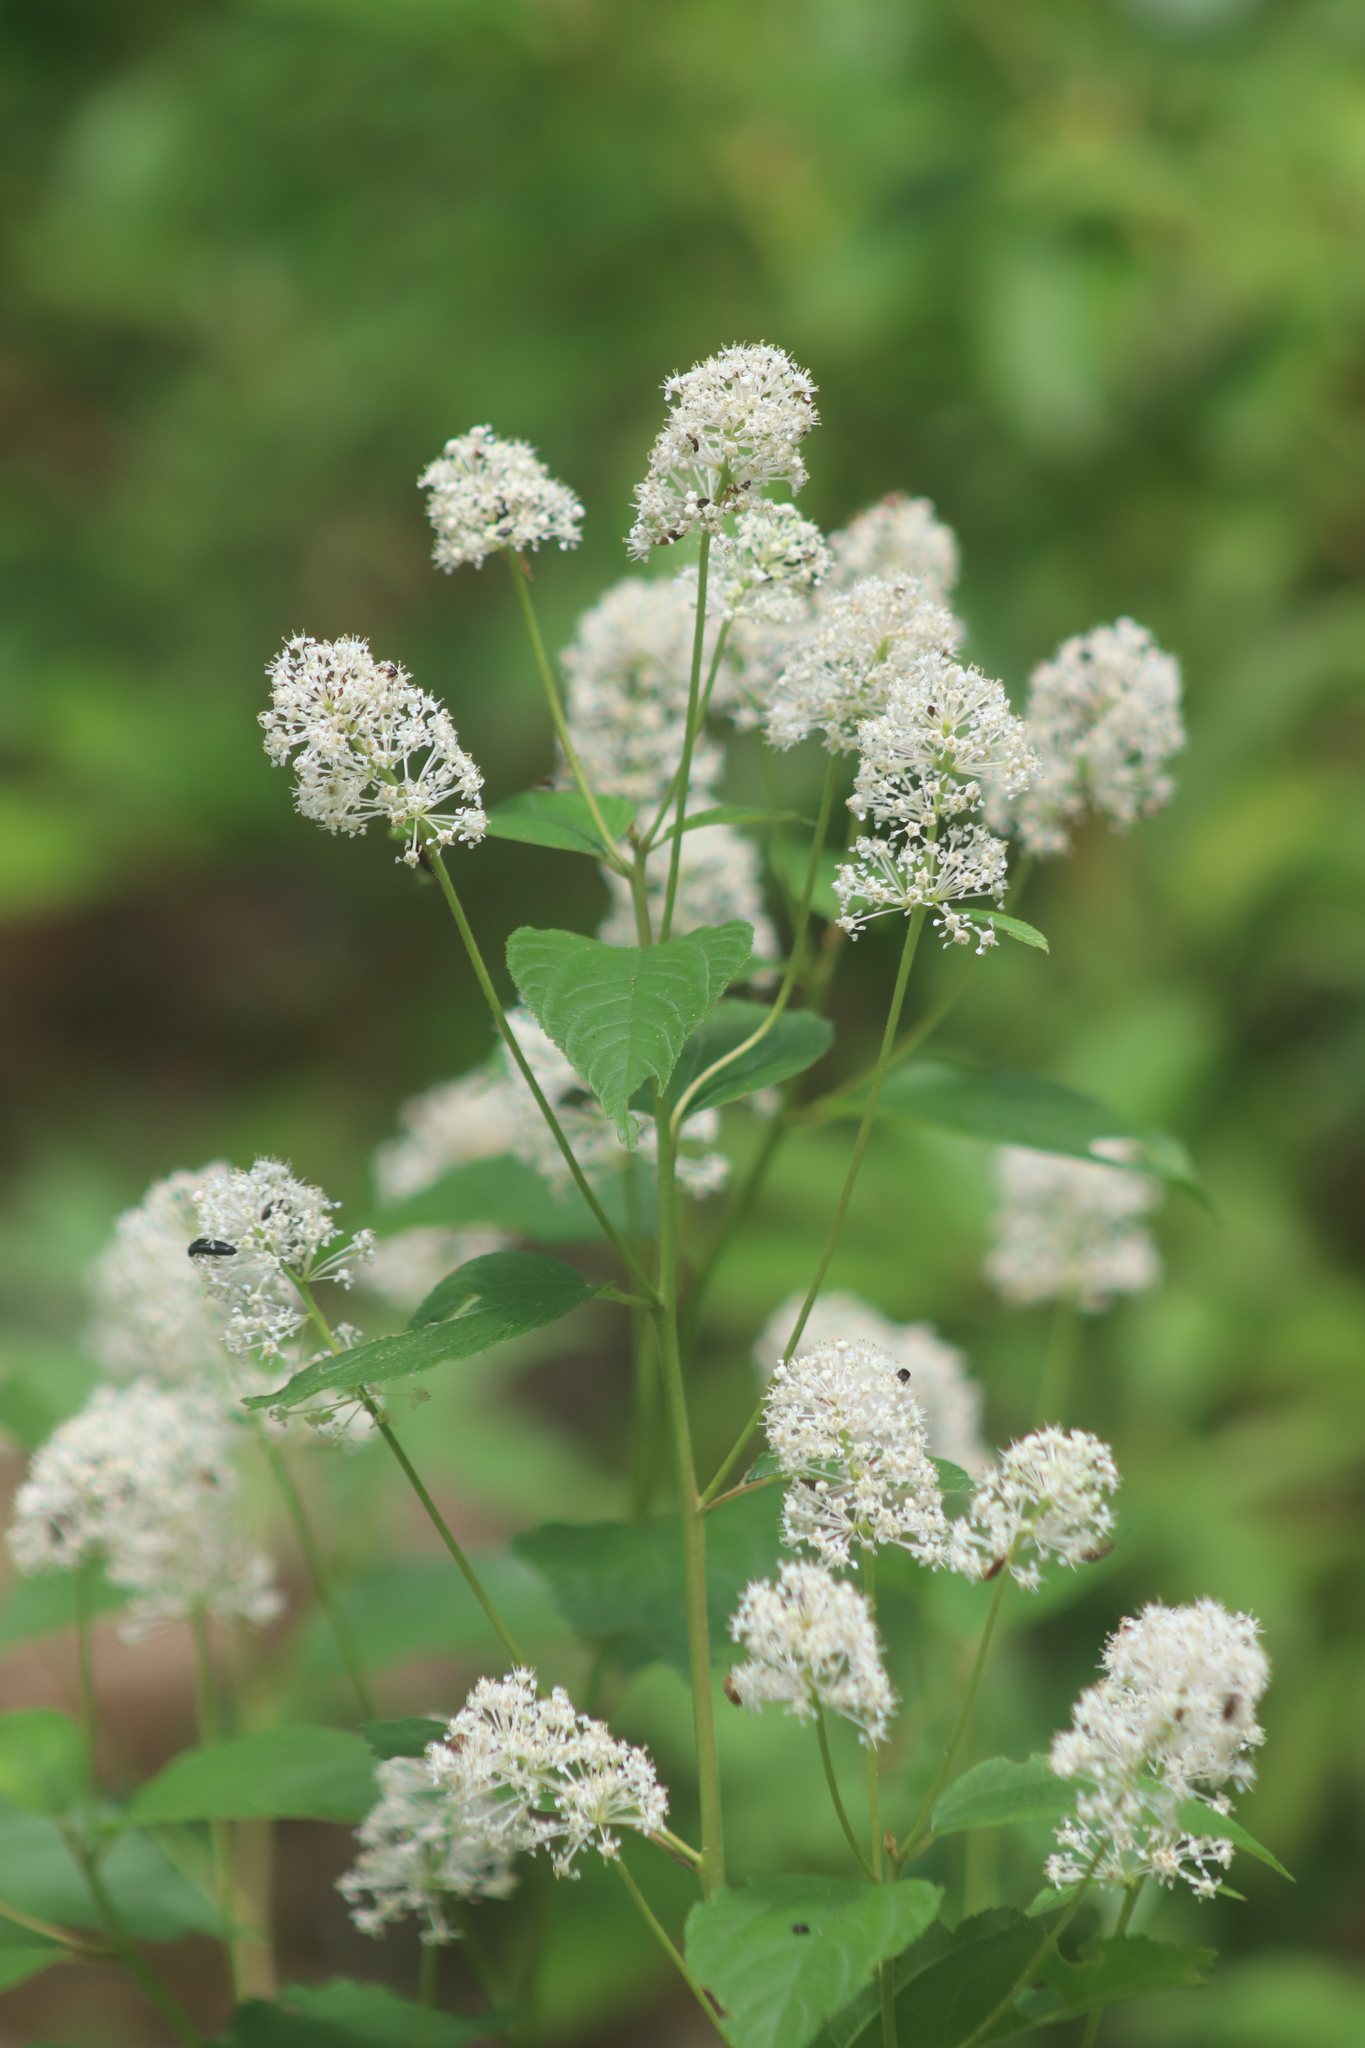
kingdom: Plantae
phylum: Tracheophyta
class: Magnoliopsida
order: Rosales
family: Rhamnaceae
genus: Ceanothus
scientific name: Ceanothus americanus
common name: Redroot
